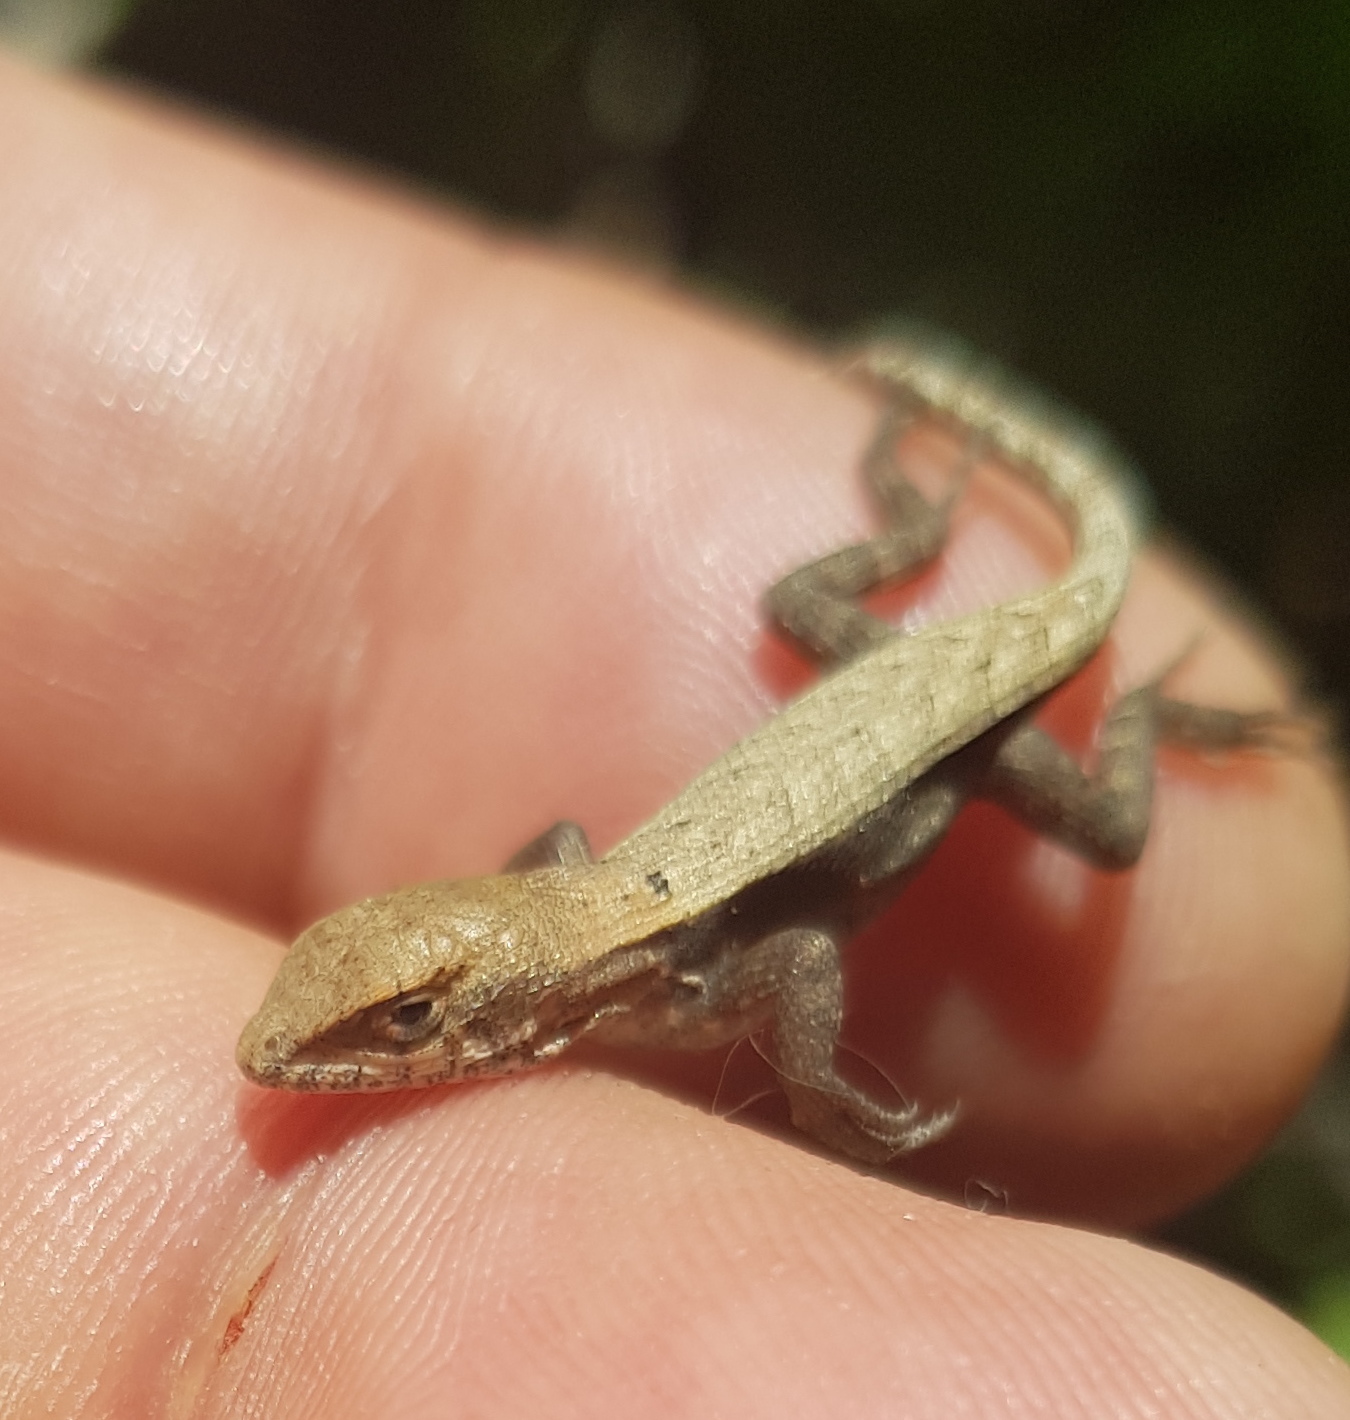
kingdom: Animalia
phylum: Chordata
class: Squamata
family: Phrynosomatidae
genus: Sceloporus
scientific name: Sceloporus siniferus
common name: Longtail spiny lizard
